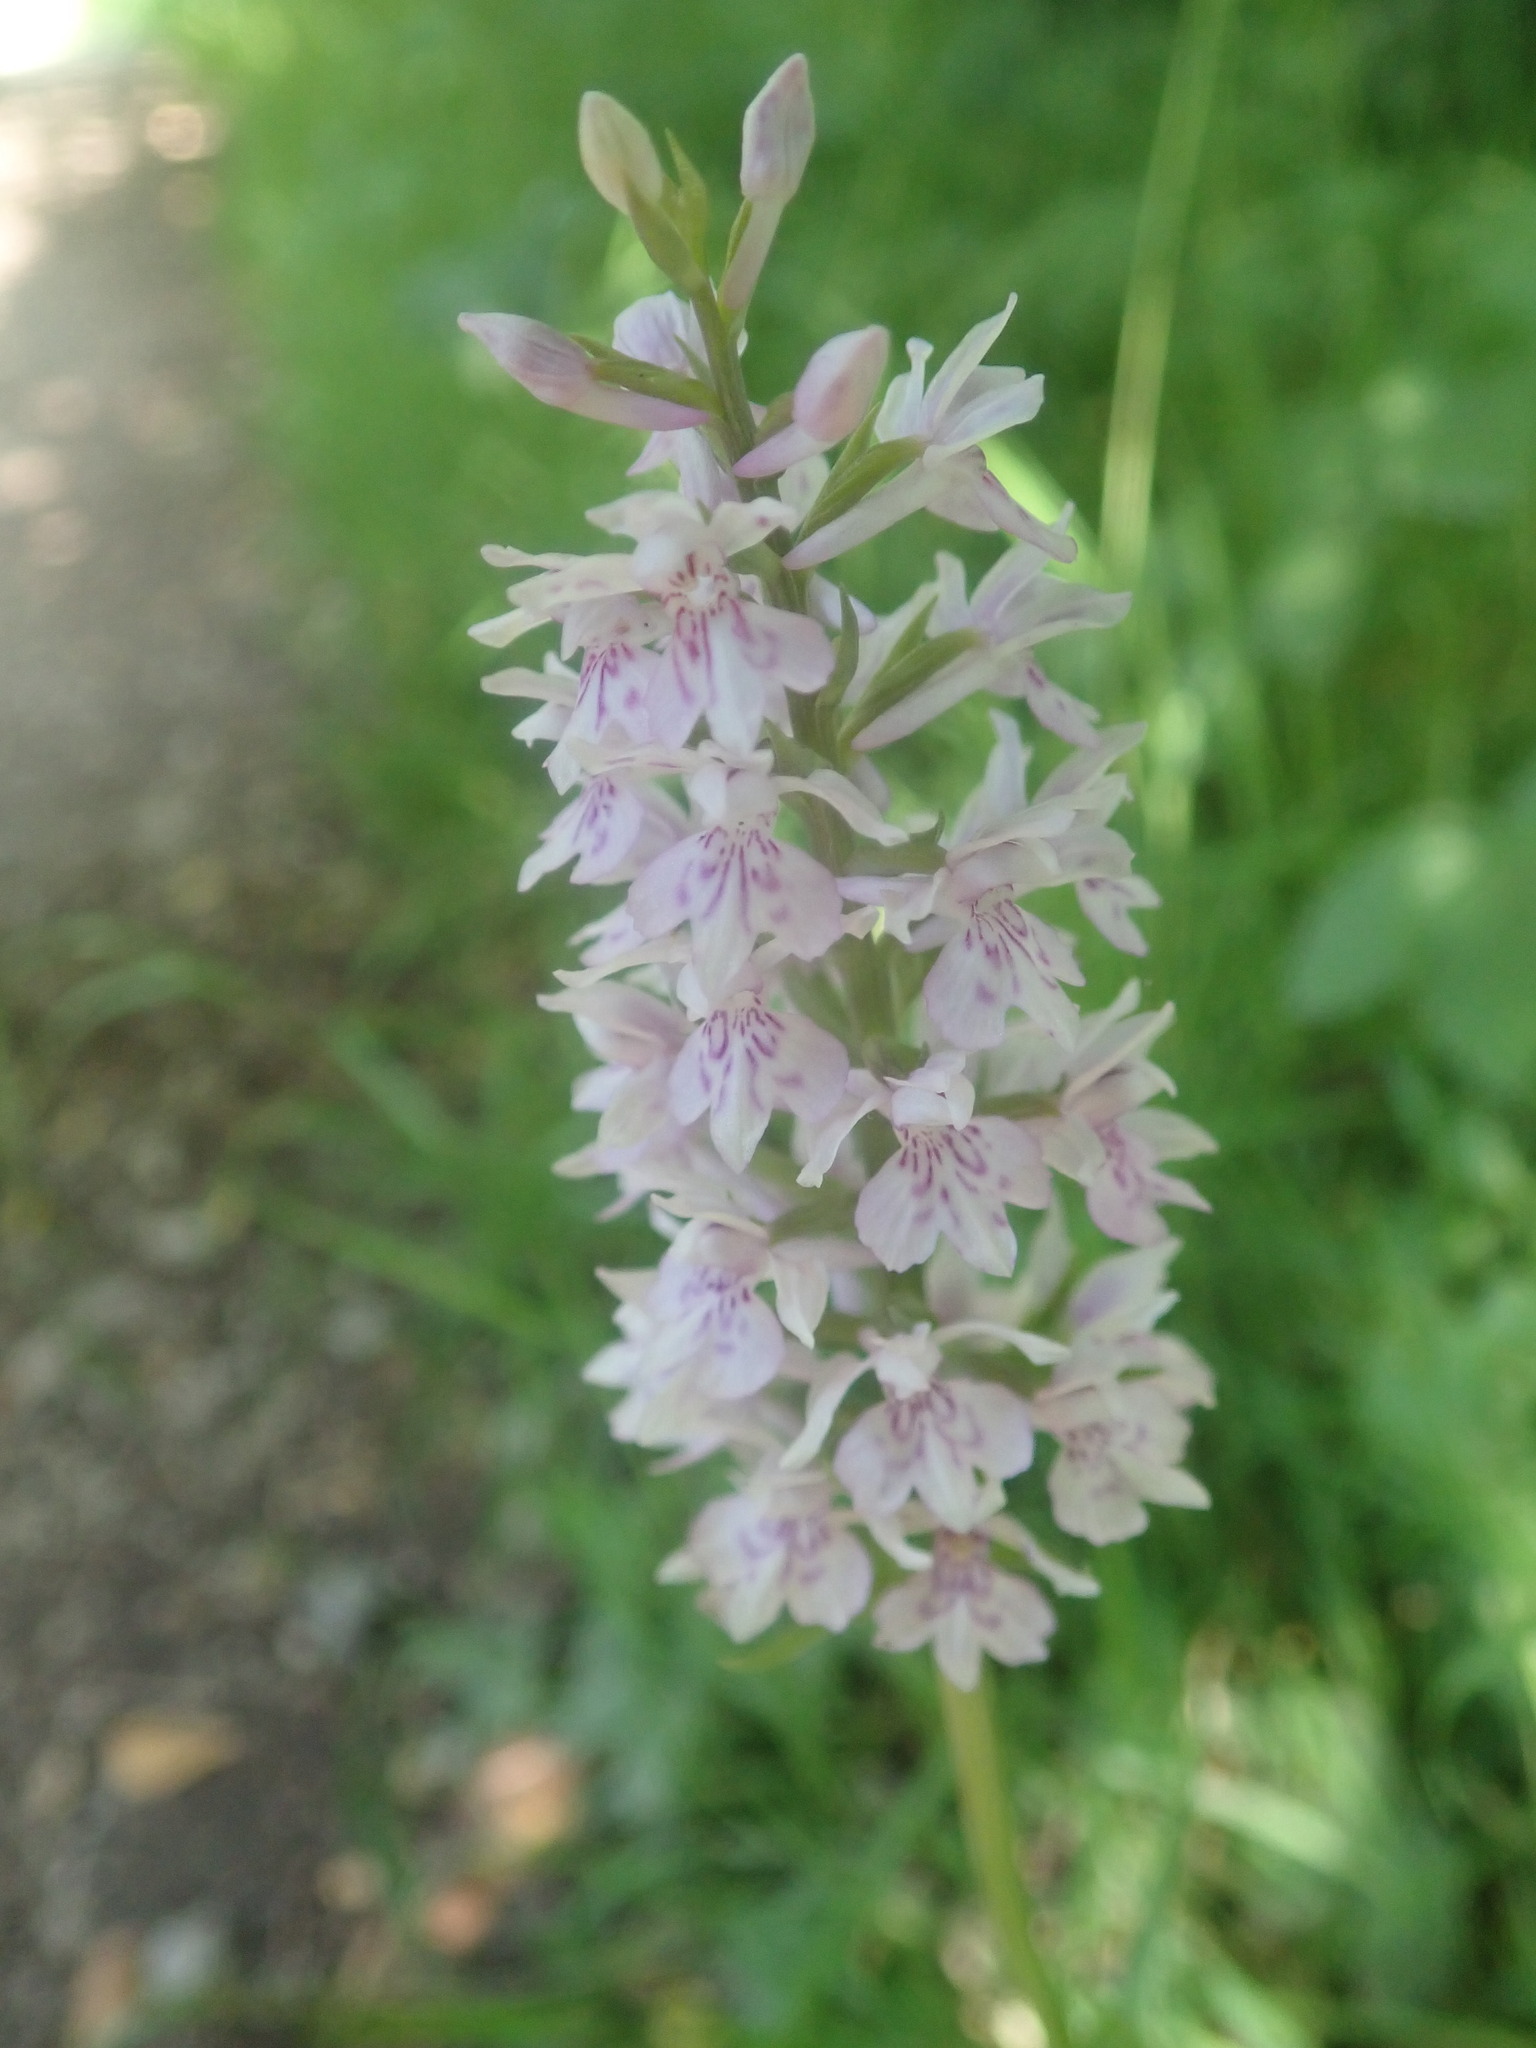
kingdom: Plantae
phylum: Tracheophyta
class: Liliopsida
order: Asparagales
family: Orchidaceae
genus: Dactylorhiza
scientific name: Dactylorhiza maculata
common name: Heath spotted-orchid
